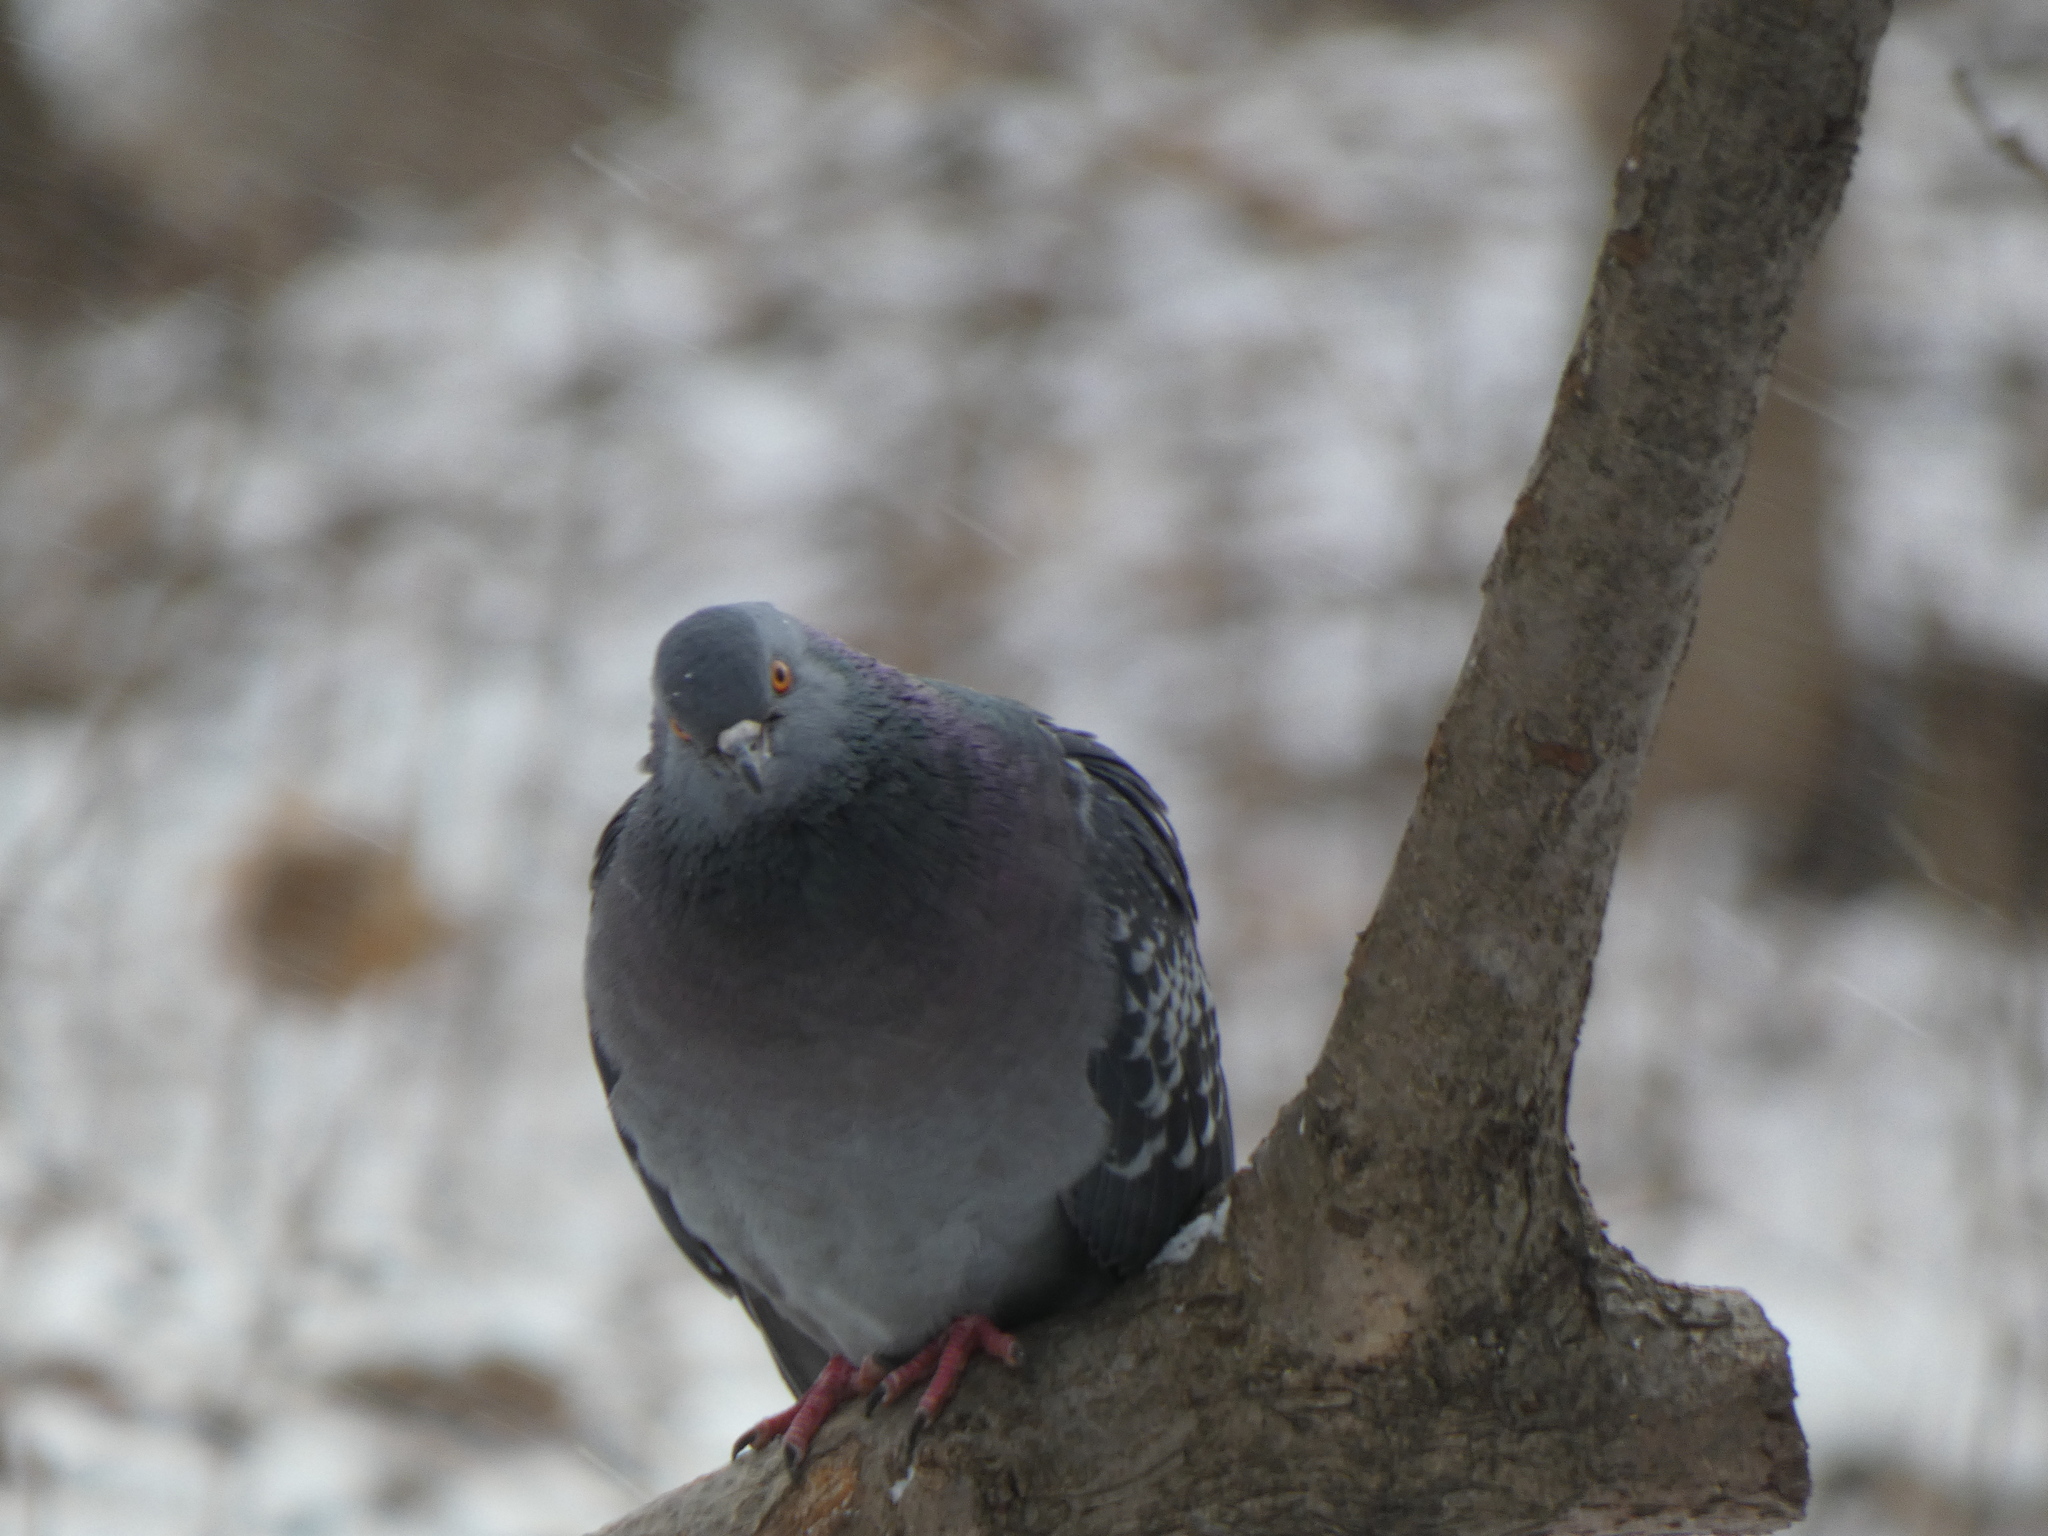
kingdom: Animalia
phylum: Chordata
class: Aves
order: Columbiformes
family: Columbidae
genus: Columba
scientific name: Columba livia
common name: Rock pigeon
